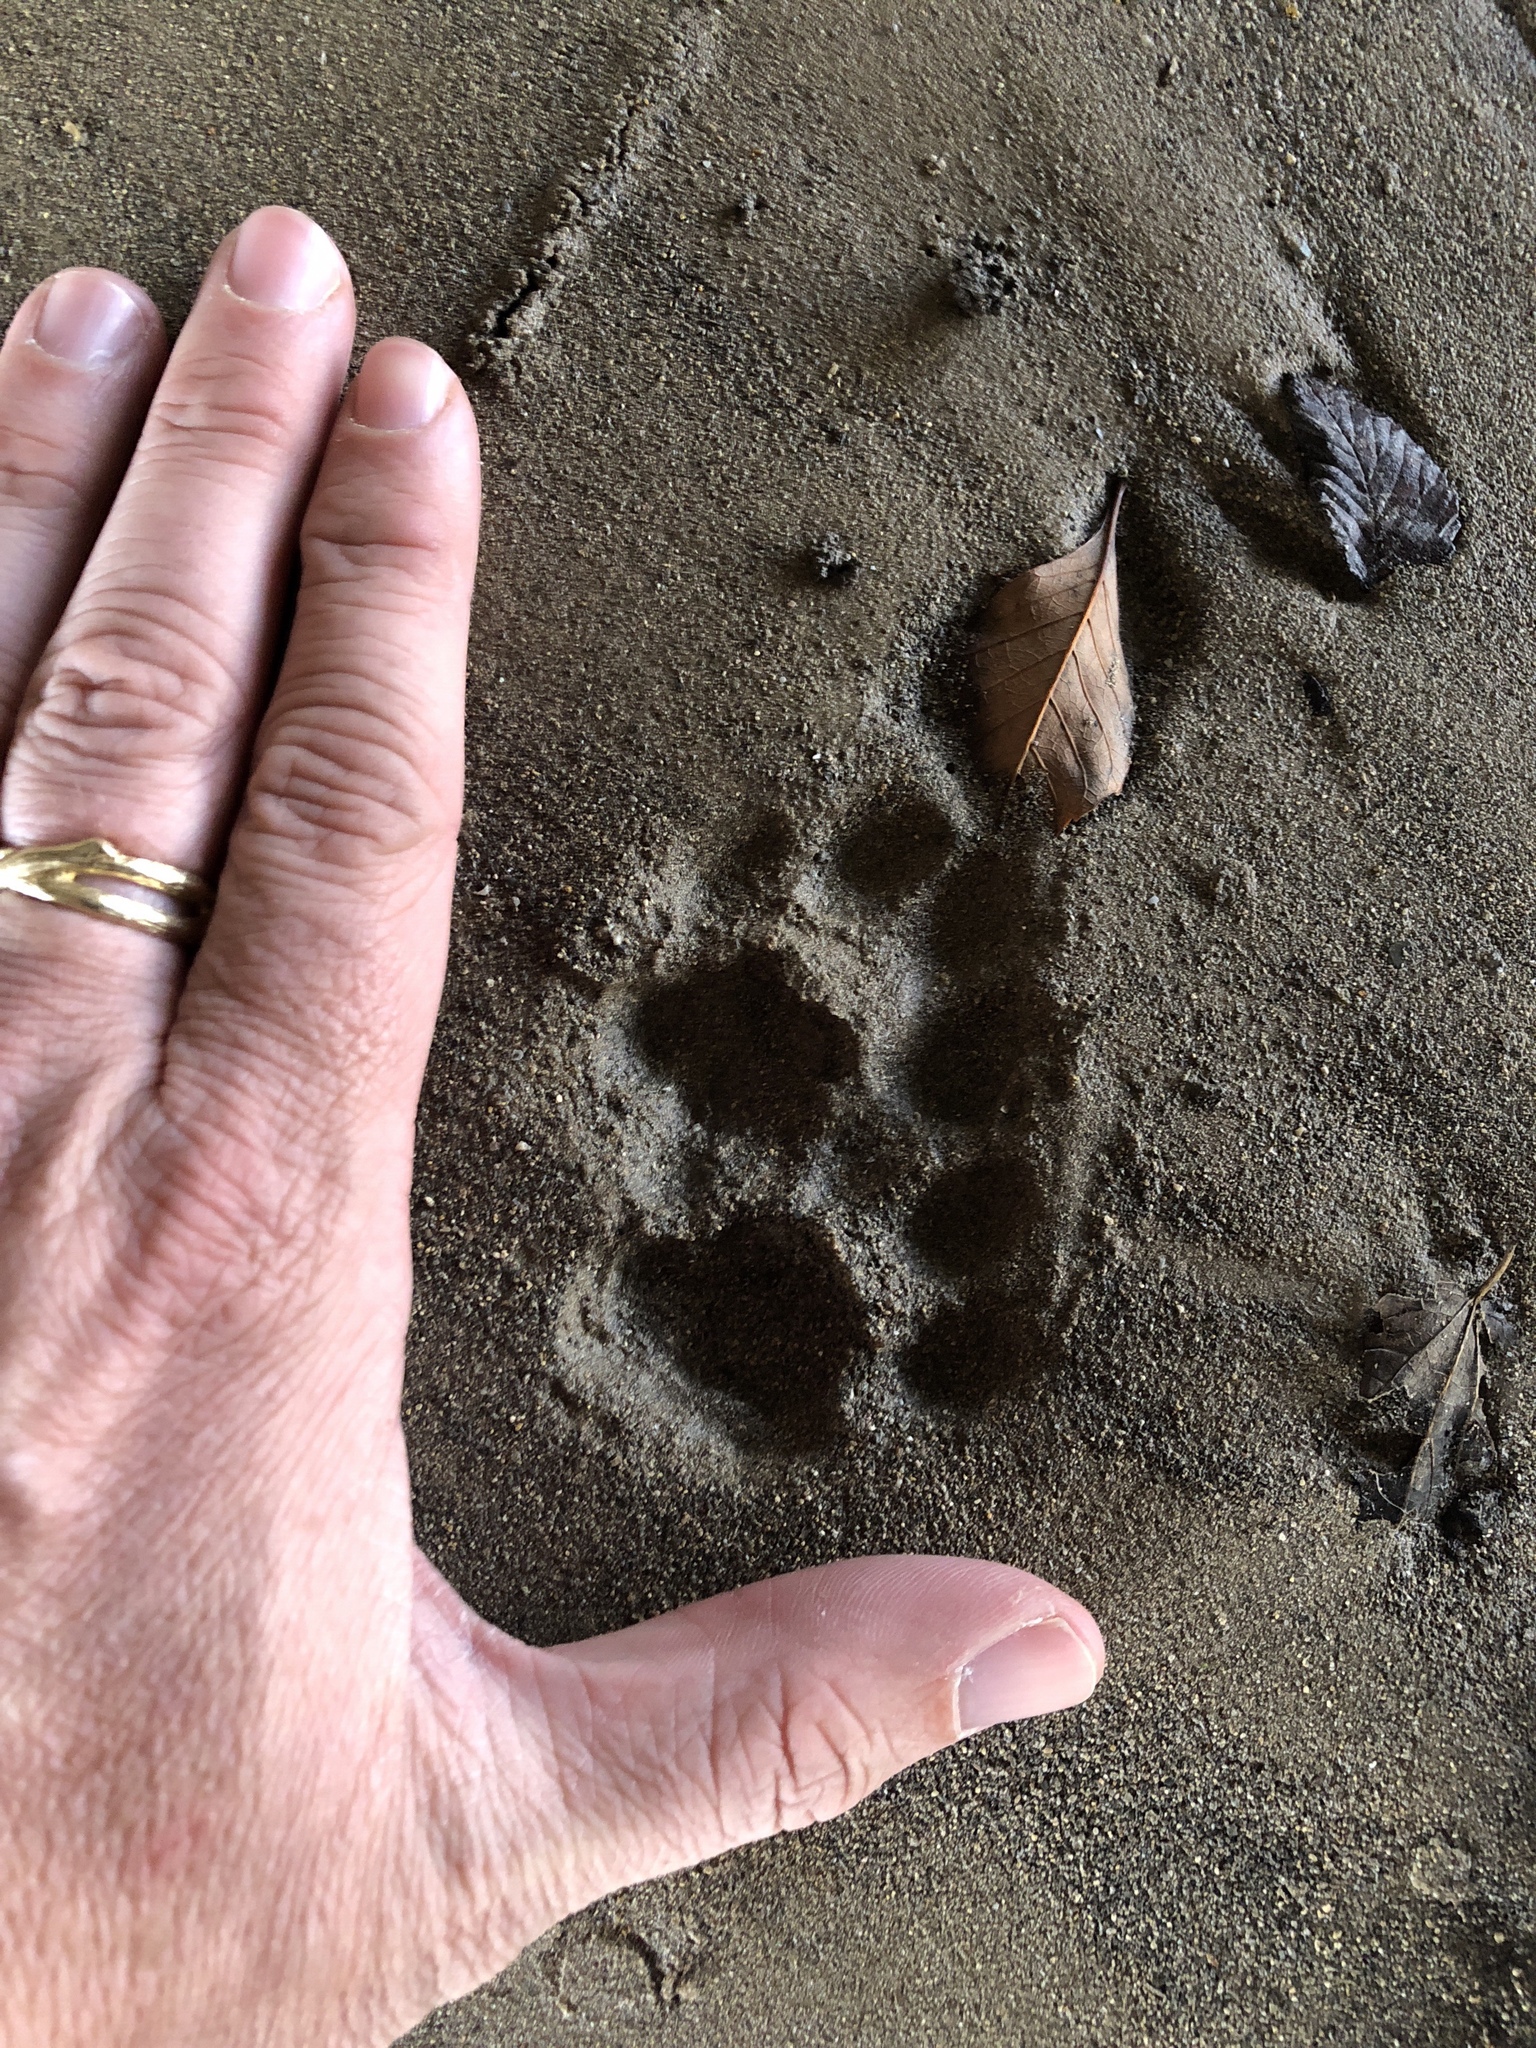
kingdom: Animalia
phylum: Chordata
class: Mammalia
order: Carnivora
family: Felidae
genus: Lynx
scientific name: Lynx rufus
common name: Bobcat
